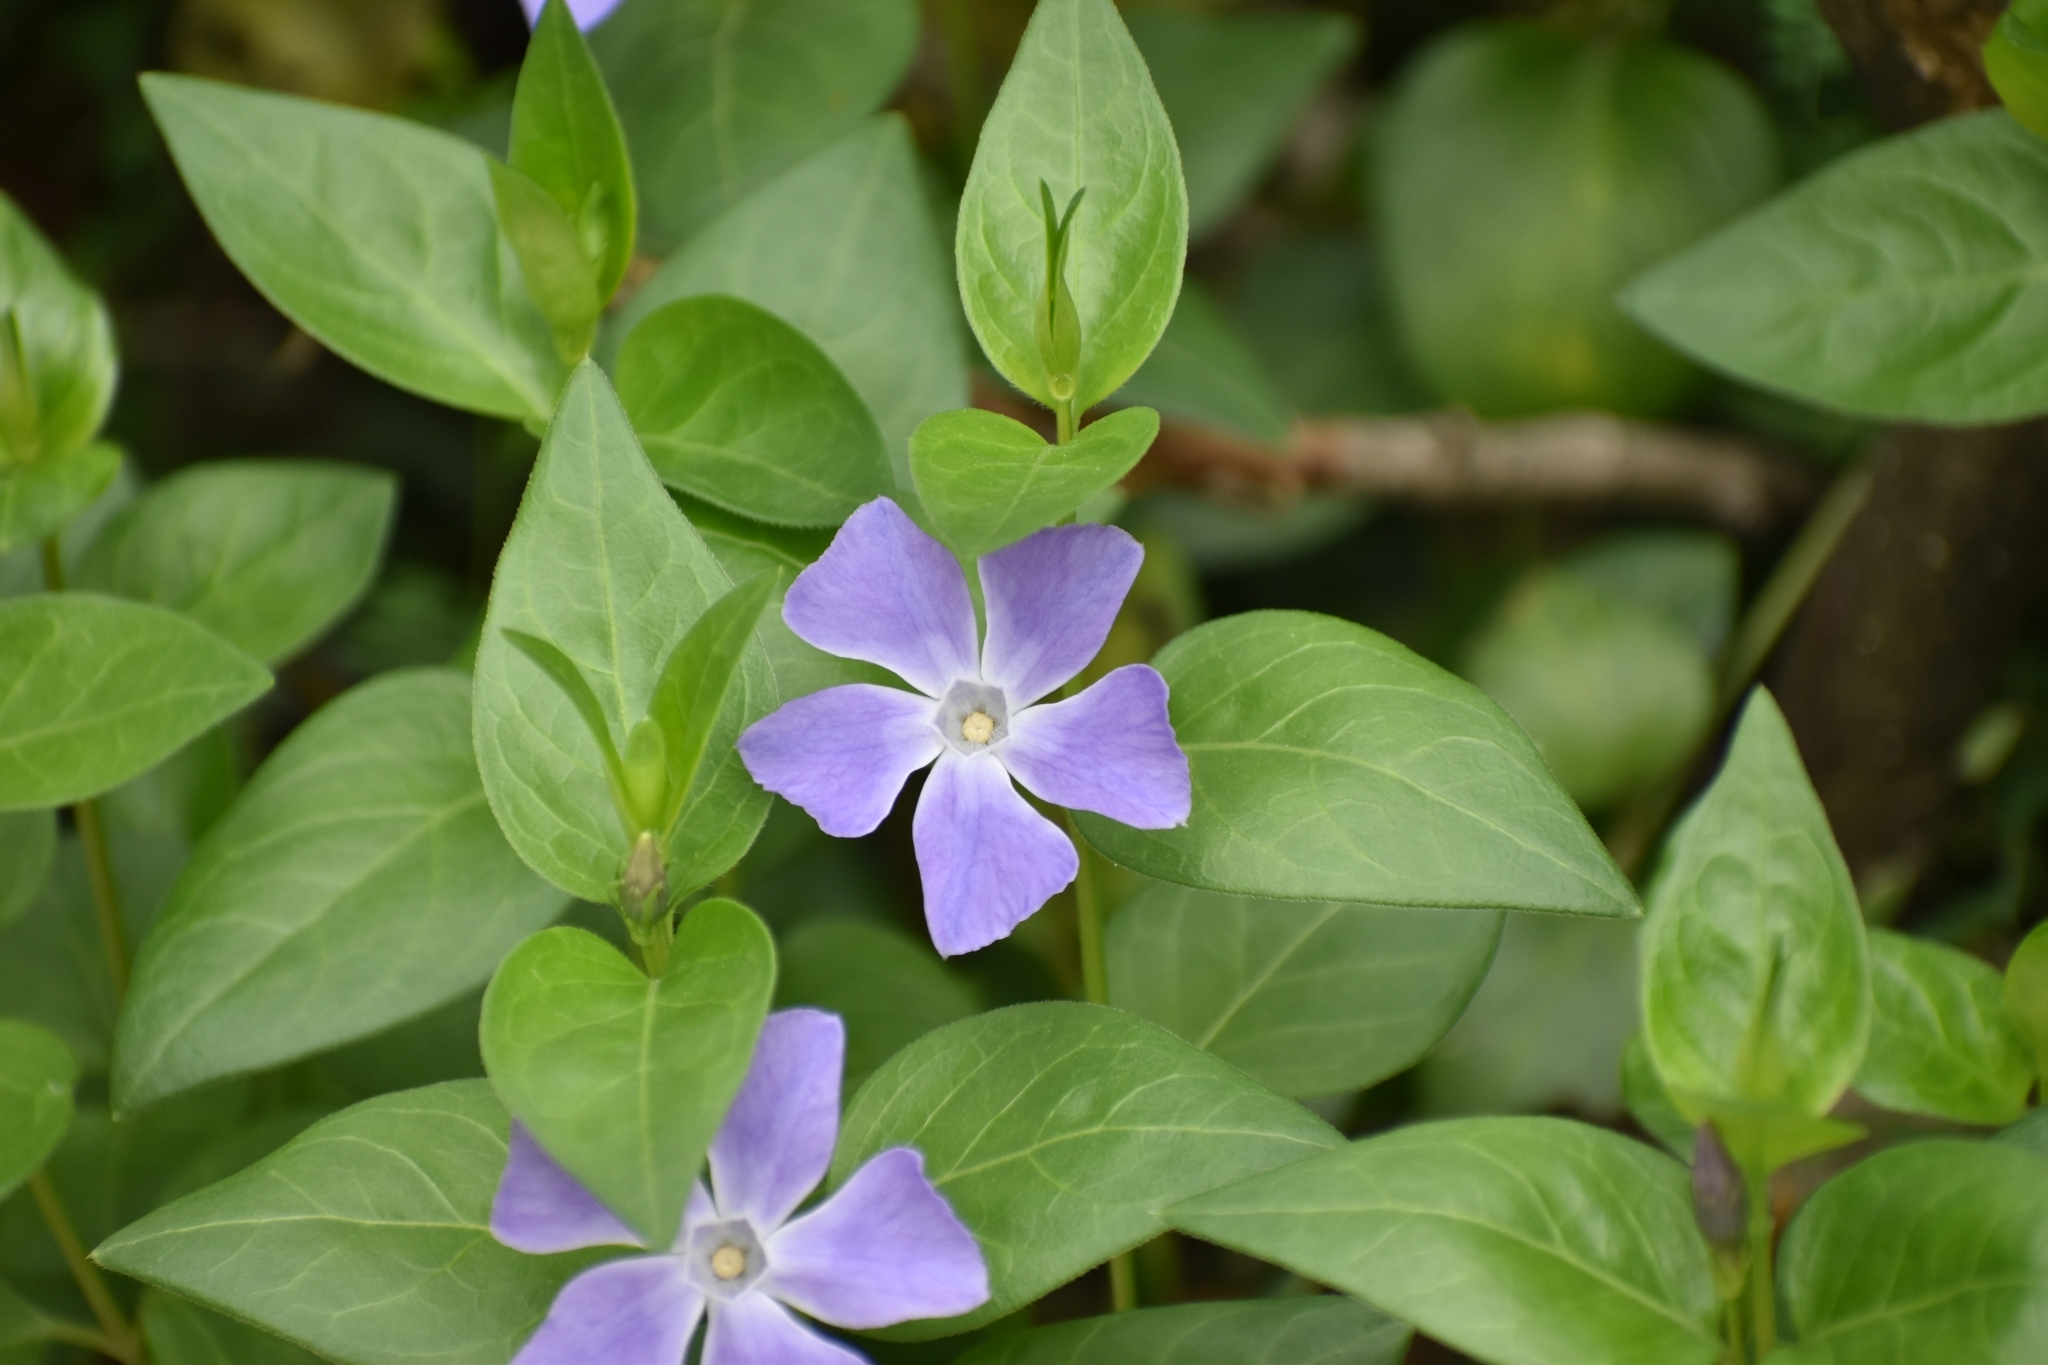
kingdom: Plantae
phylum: Tracheophyta
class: Magnoliopsida
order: Gentianales
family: Apocynaceae
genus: Vinca
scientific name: Vinca major
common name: Greater periwinkle
